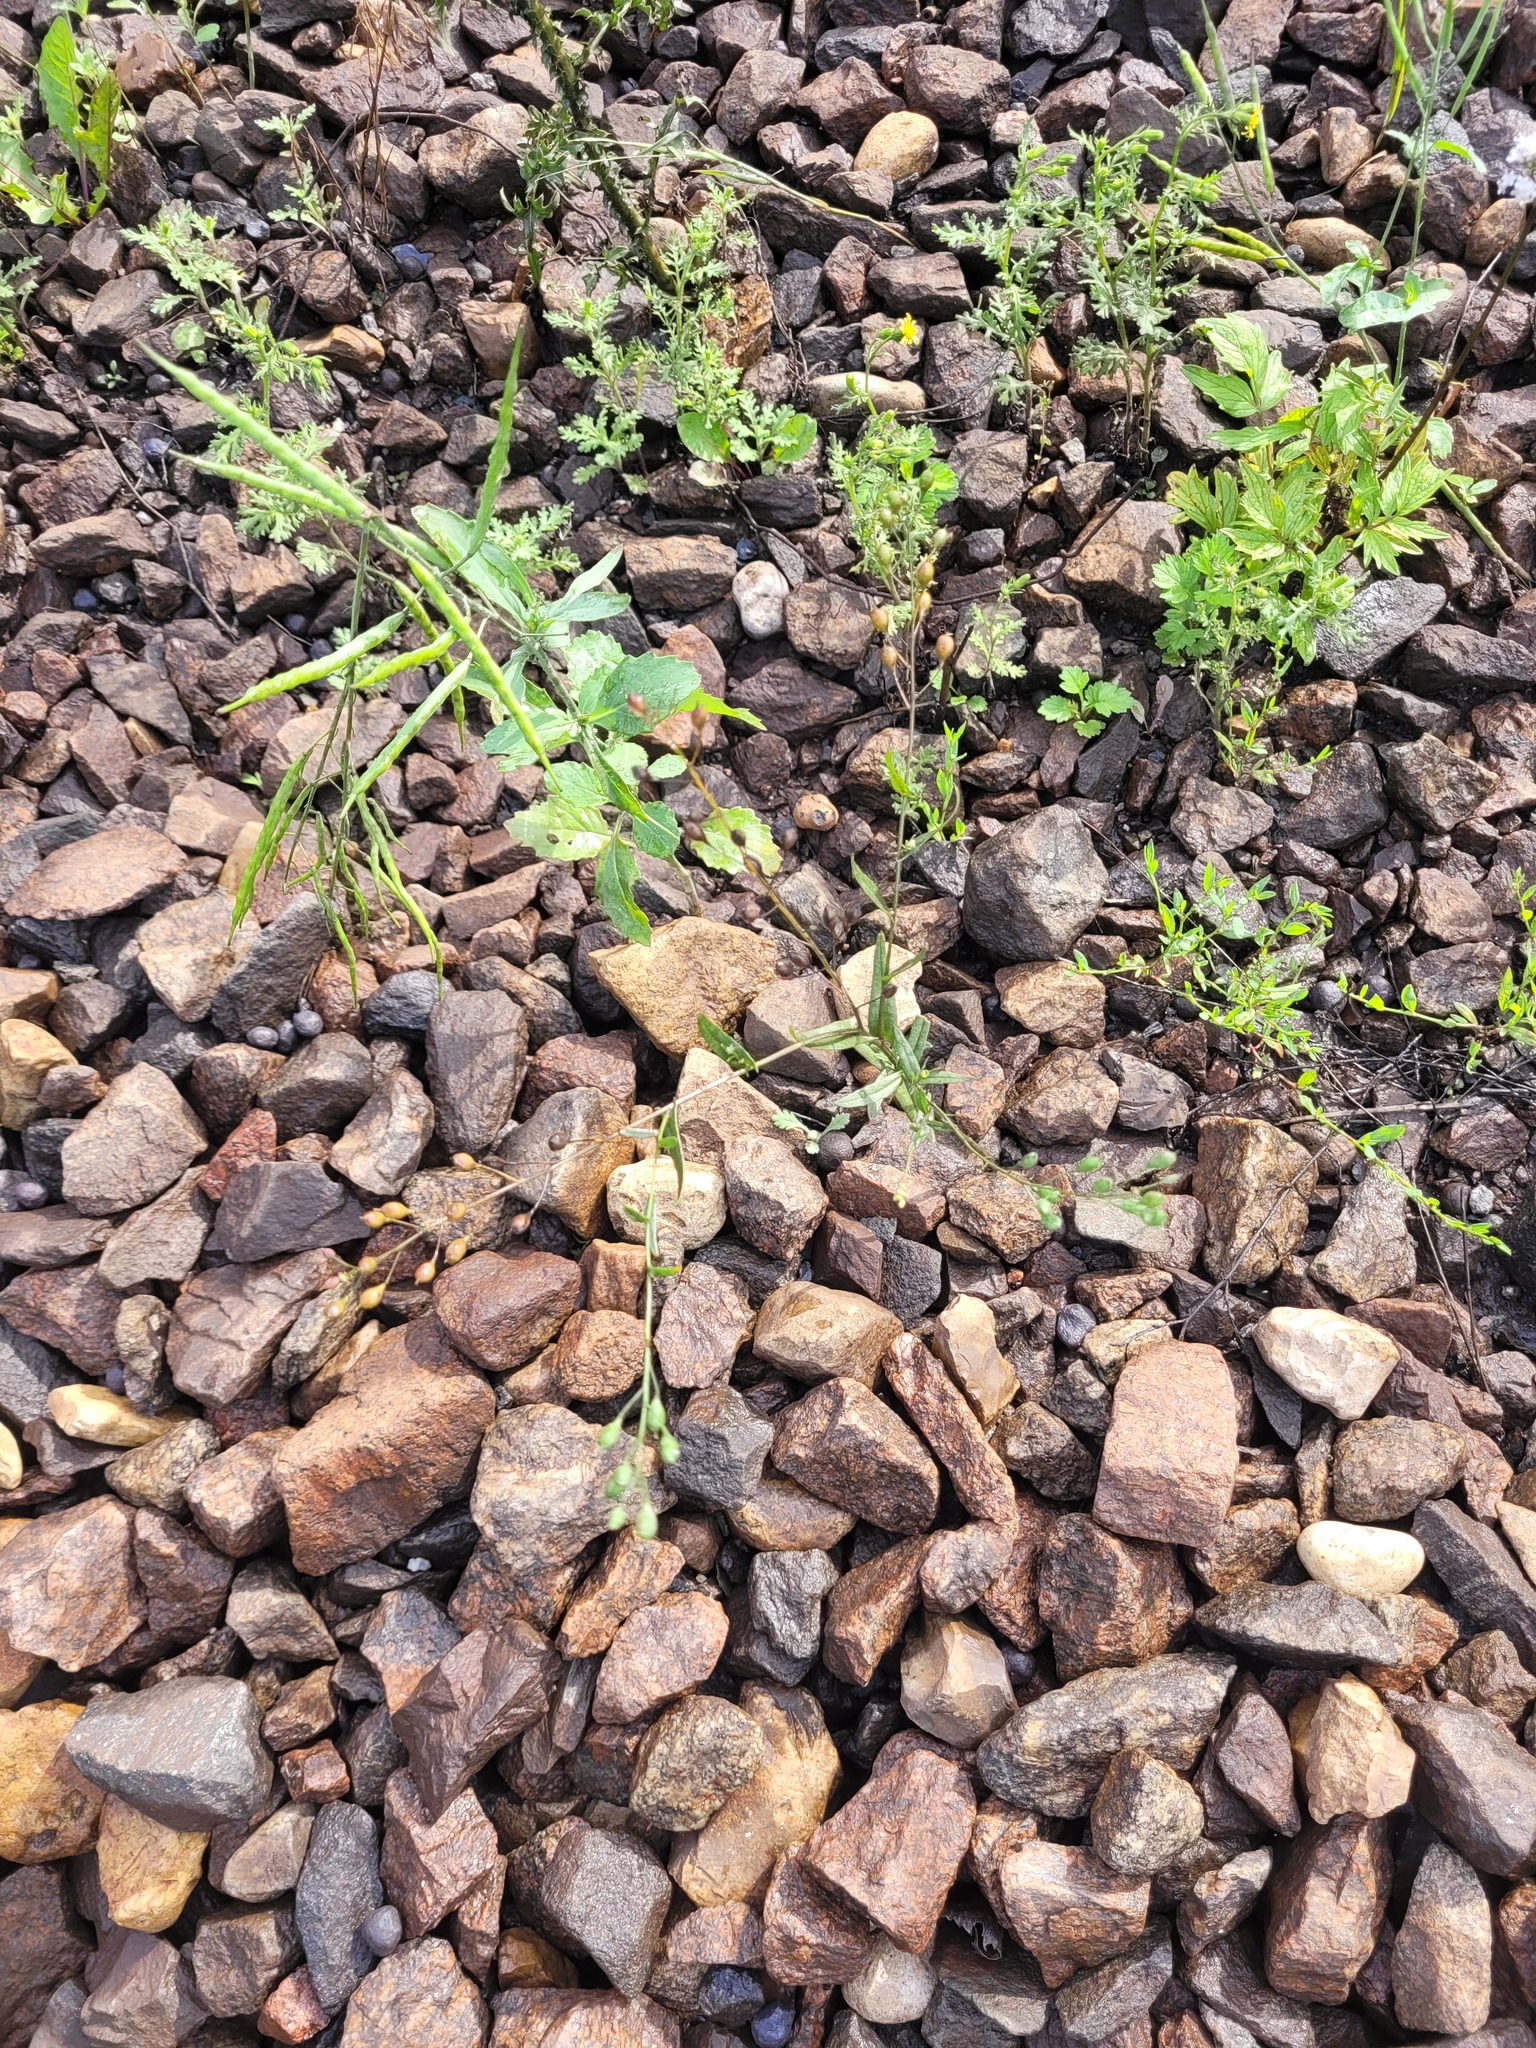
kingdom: Plantae
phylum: Tracheophyta
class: Magnoliopsida
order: Brassicales
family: Brassicaceae
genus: Camelina
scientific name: Camelina sativa
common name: Gold-of-pleasure
